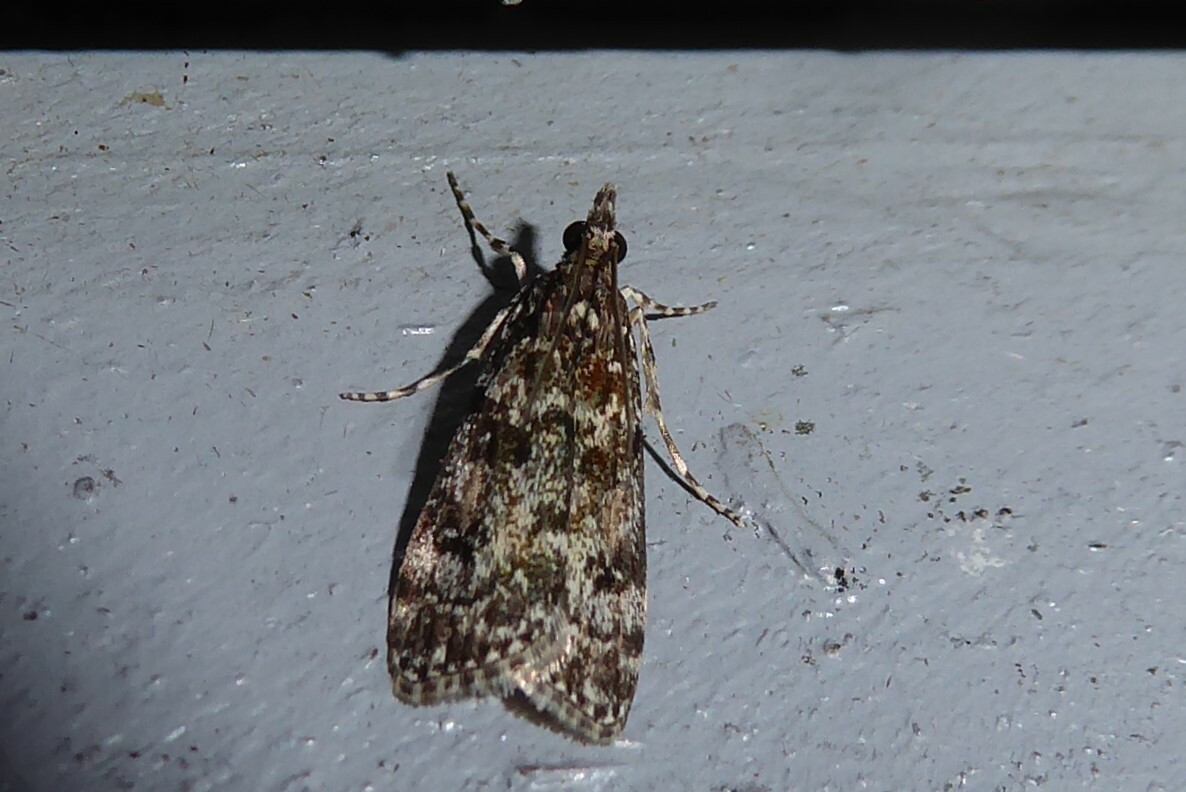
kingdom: Animalia
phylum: Arthropoda
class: Insecta
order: Lepidoptera
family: Crambidae
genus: Eudonia
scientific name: Eudonia philerga
